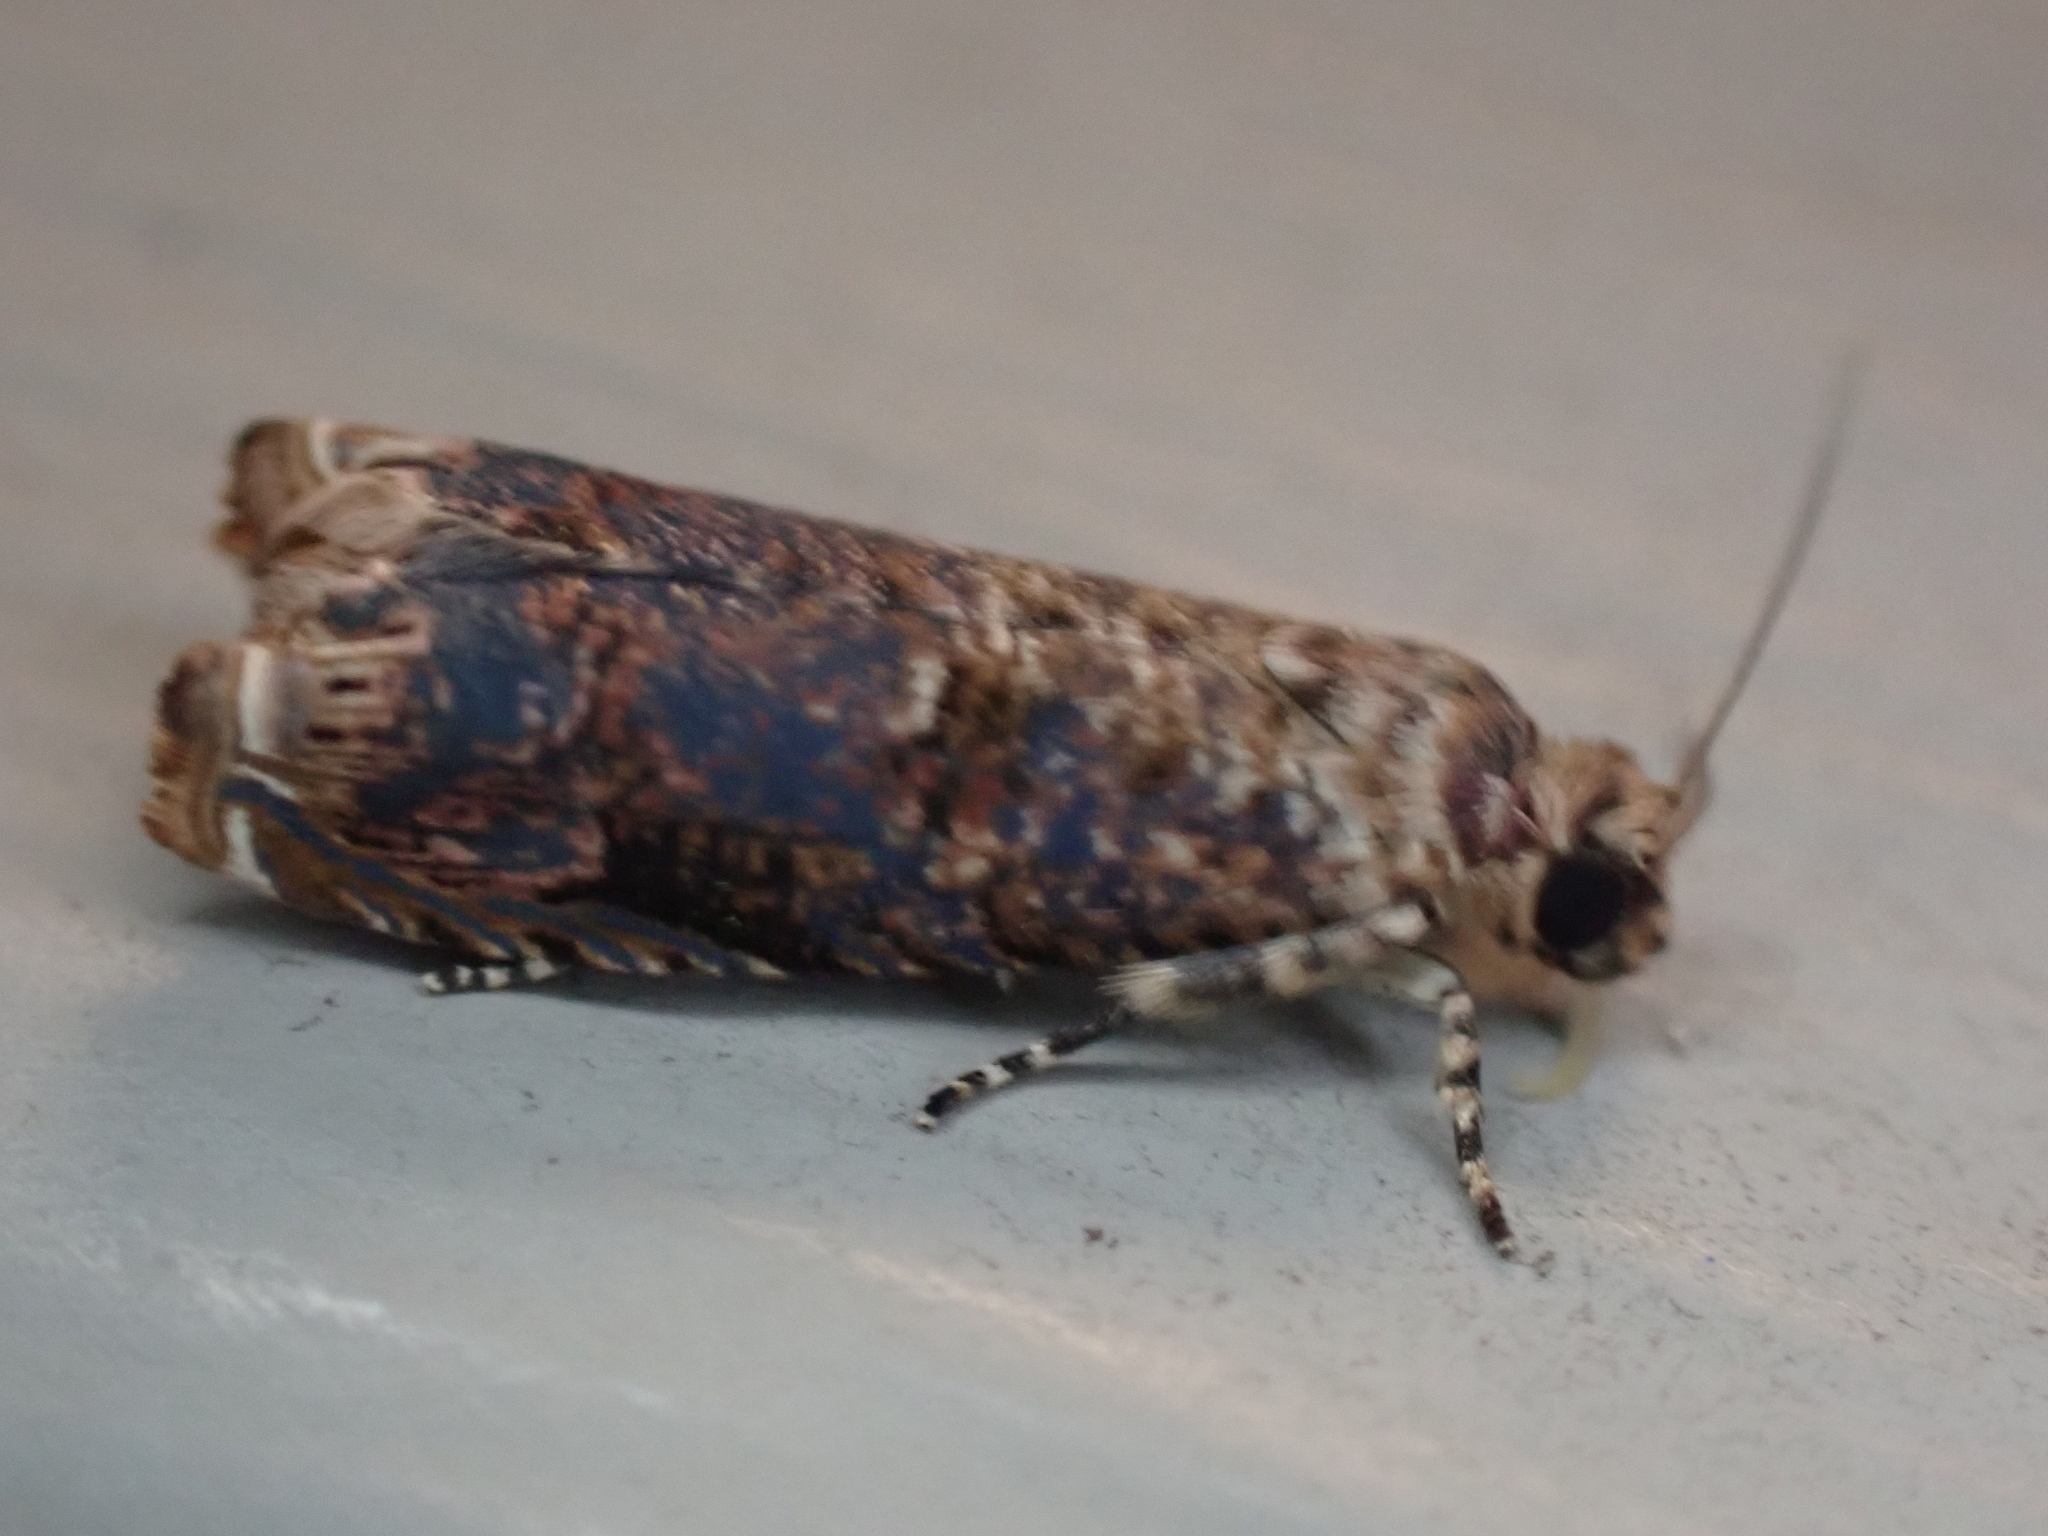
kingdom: Animalia
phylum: Arthropoda
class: Insecta
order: Lepidoptera
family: Tortricidae
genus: Episimus
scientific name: Episimus argutana
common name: Sumac leaftier moth
